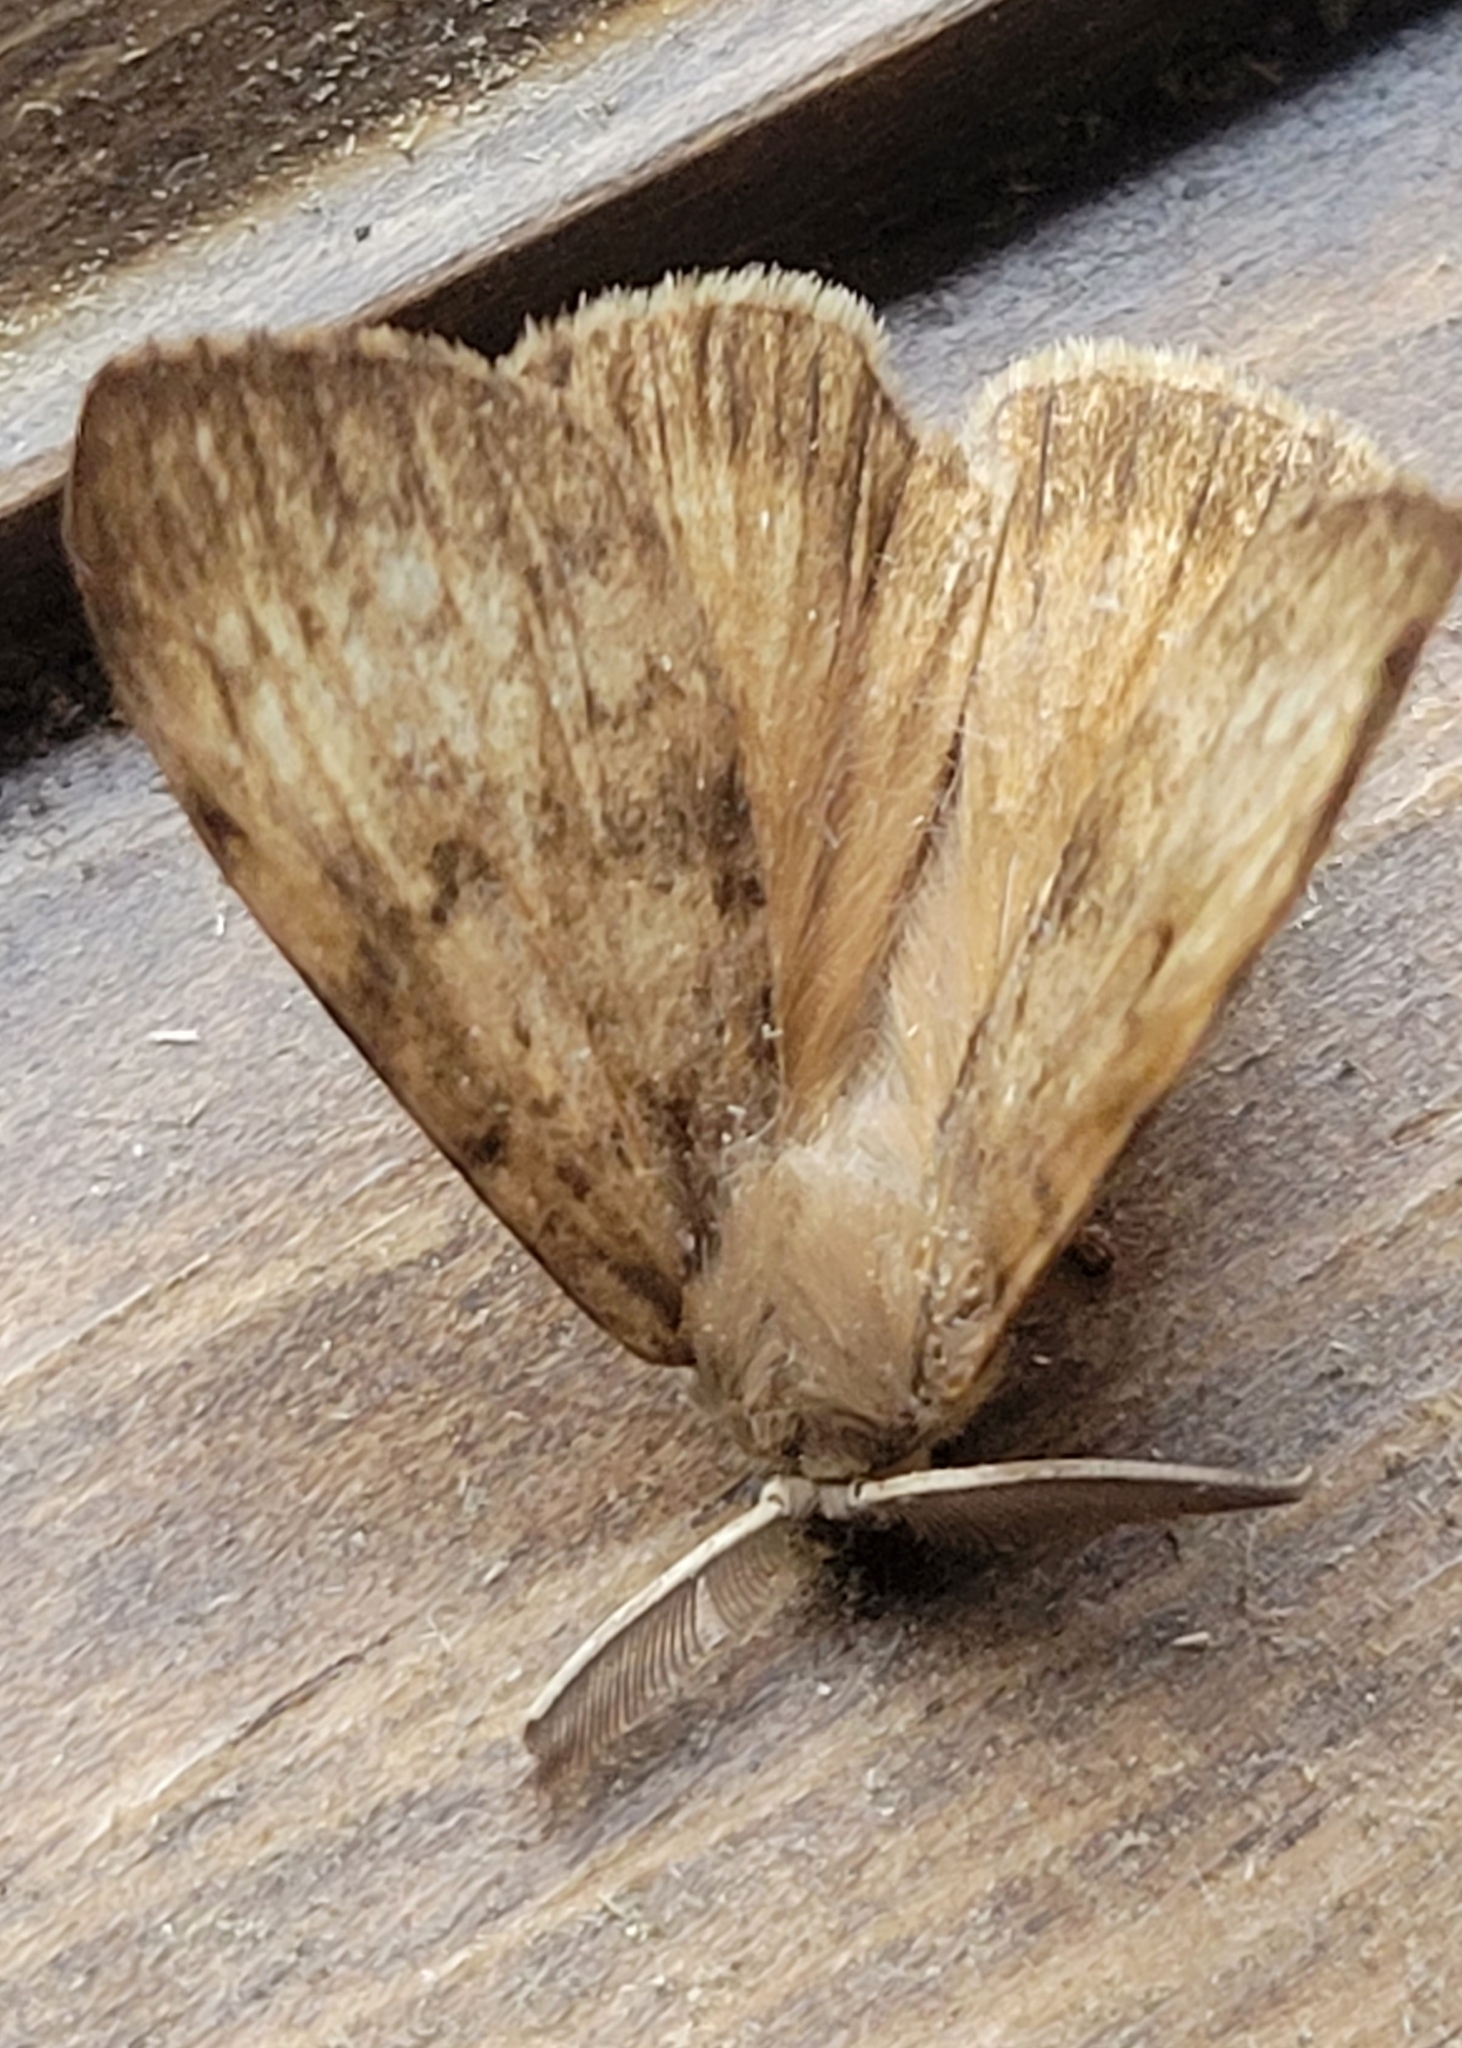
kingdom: Animalia
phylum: Arthropoda
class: Insecta
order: Lepidoptera
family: Erebidae
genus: Lymantria
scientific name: Lymantria dispar
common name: Gypsy moth
